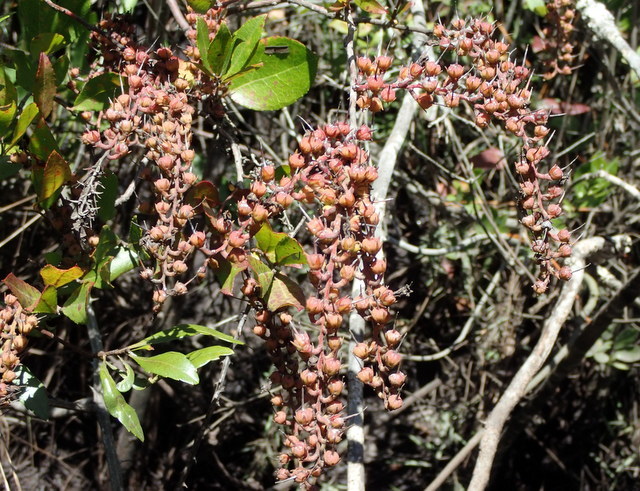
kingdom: Plantae
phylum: Tracheophyta
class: Magnoliopsida
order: Ericales
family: Ericaceae
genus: Eubotrys
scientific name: Eubotrys racemosa
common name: Fetterbush
